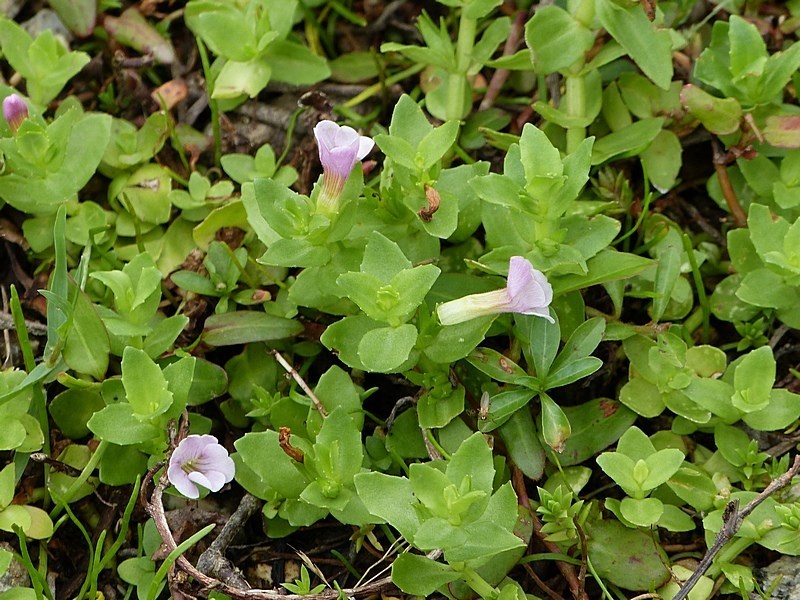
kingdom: Plantae
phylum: Tracheophyta
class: Magnoliopsida
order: Lamiales
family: Plantaginaceae
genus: Gratiola
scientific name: Gratiola peruviana
